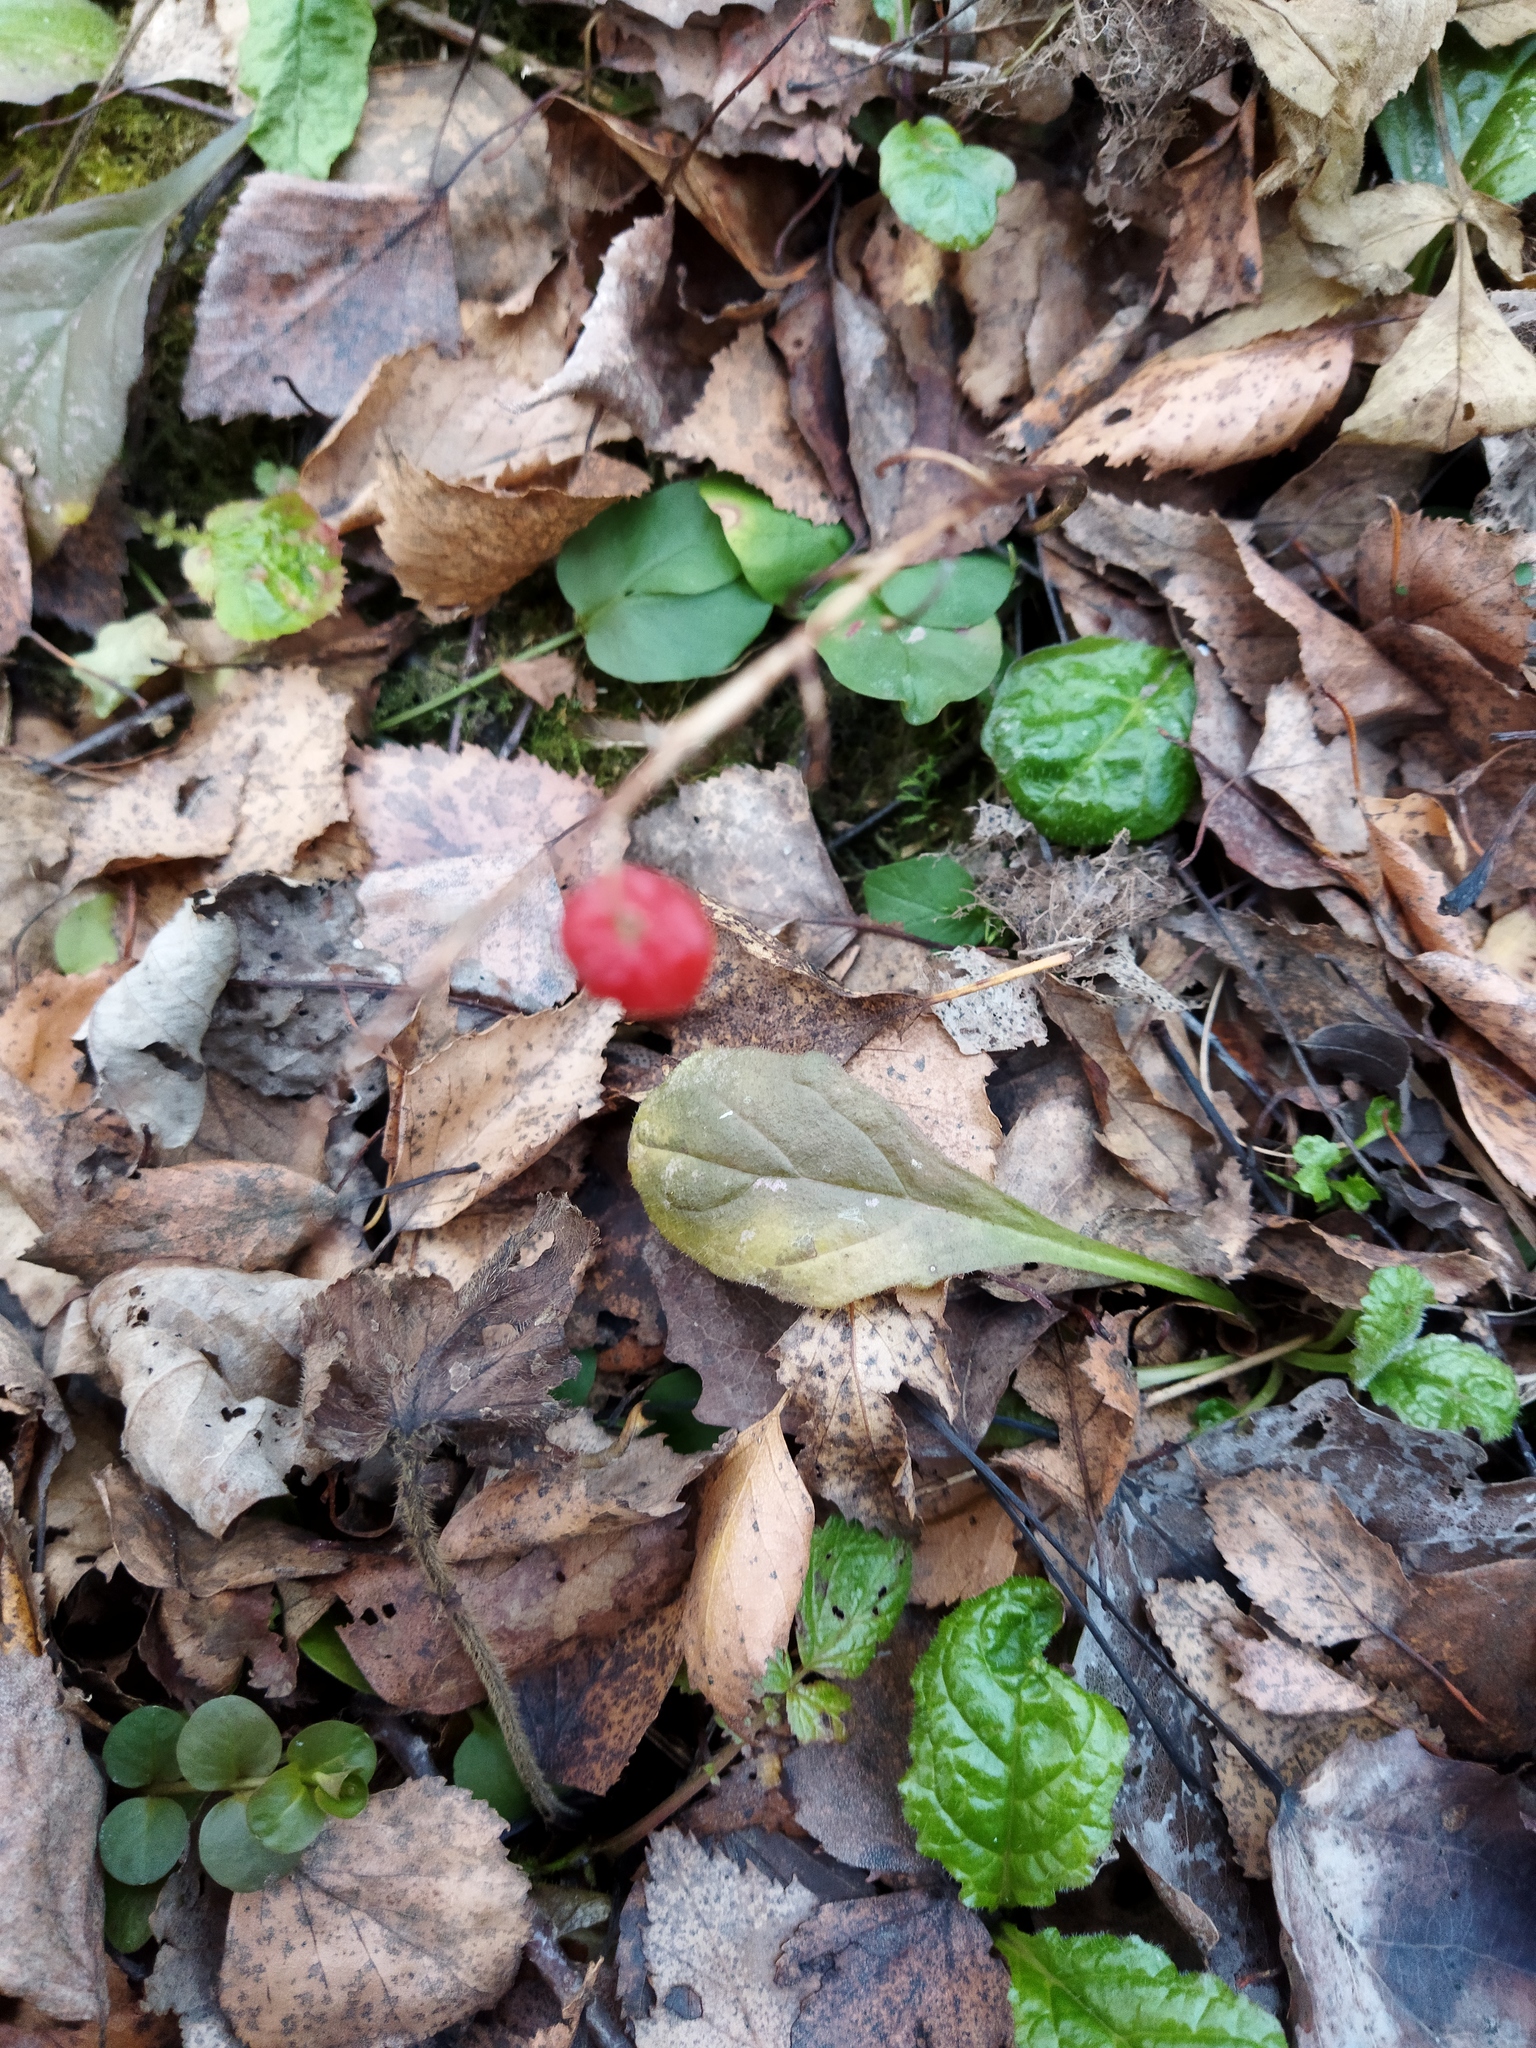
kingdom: Plantae
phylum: Tracheophyta
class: Liliopsida
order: Asparagales
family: Asparagaceae
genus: Convallaria
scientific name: Convallaria majalis
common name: Lily-of-the-valley
